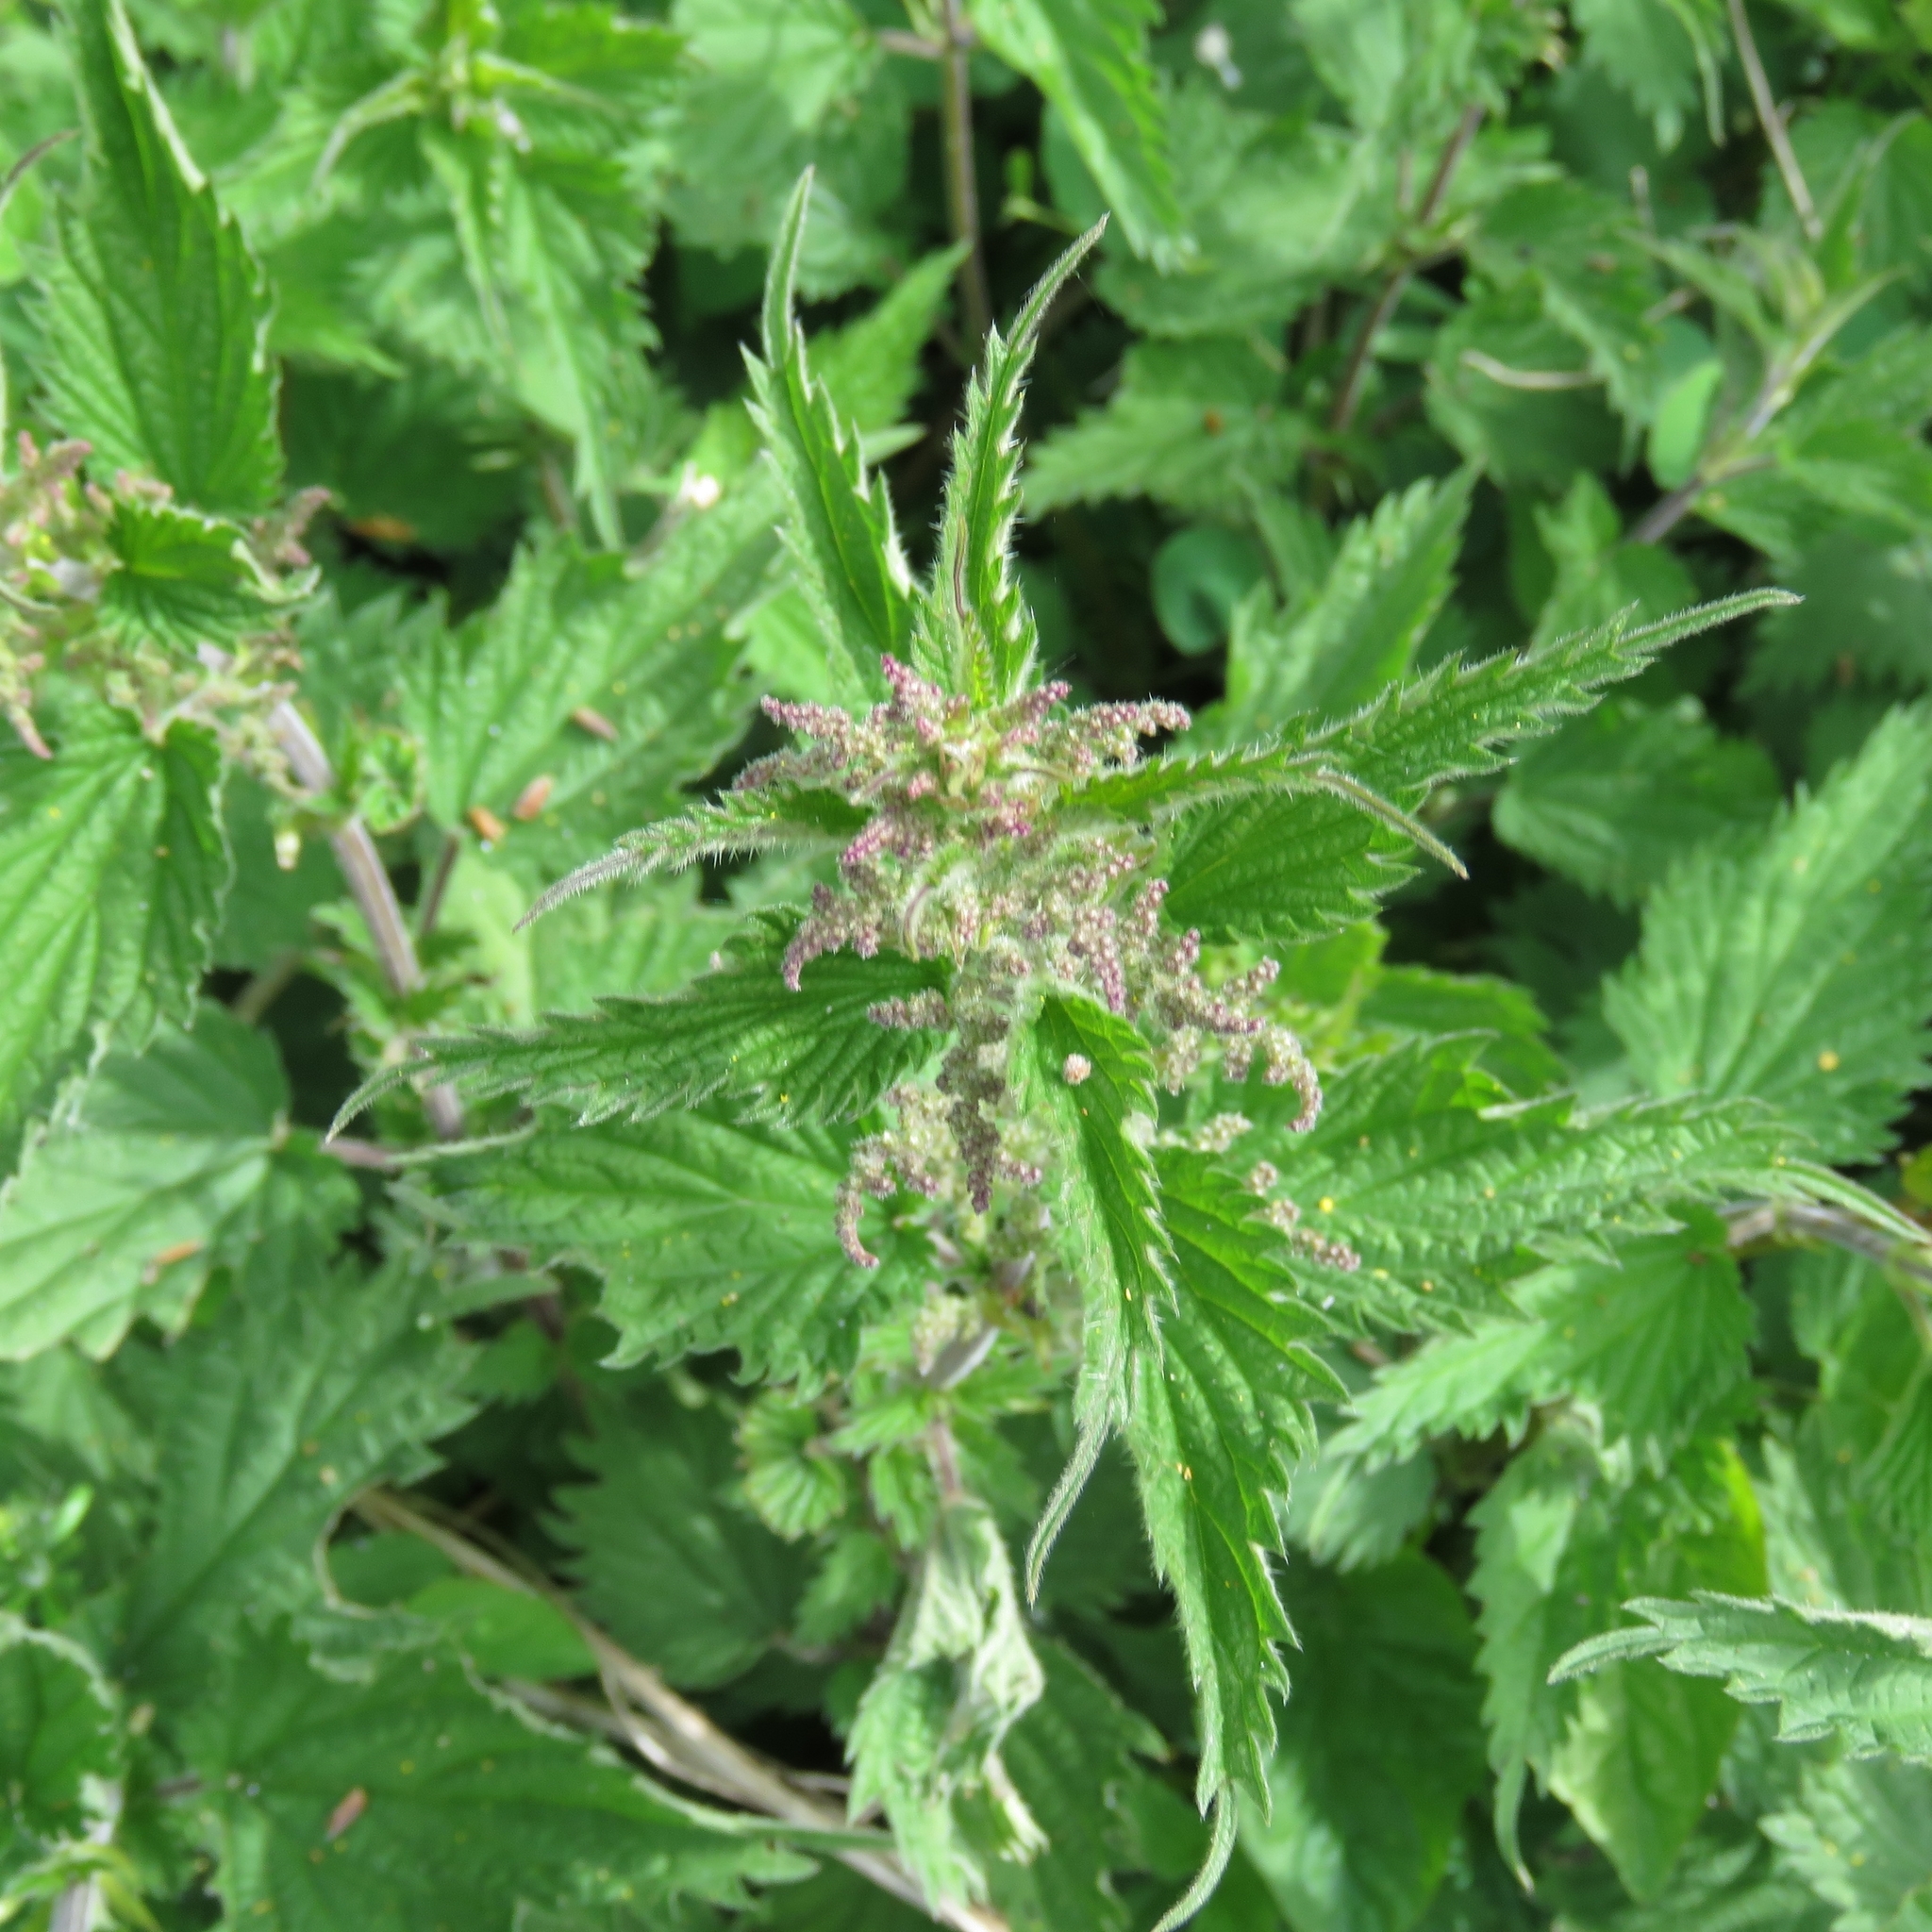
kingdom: Plantae
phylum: Tracheophyta
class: Magnoliopsida
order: Rosales
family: Urticaceae
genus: Urtica
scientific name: Urtica dioica
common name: Common nettle
